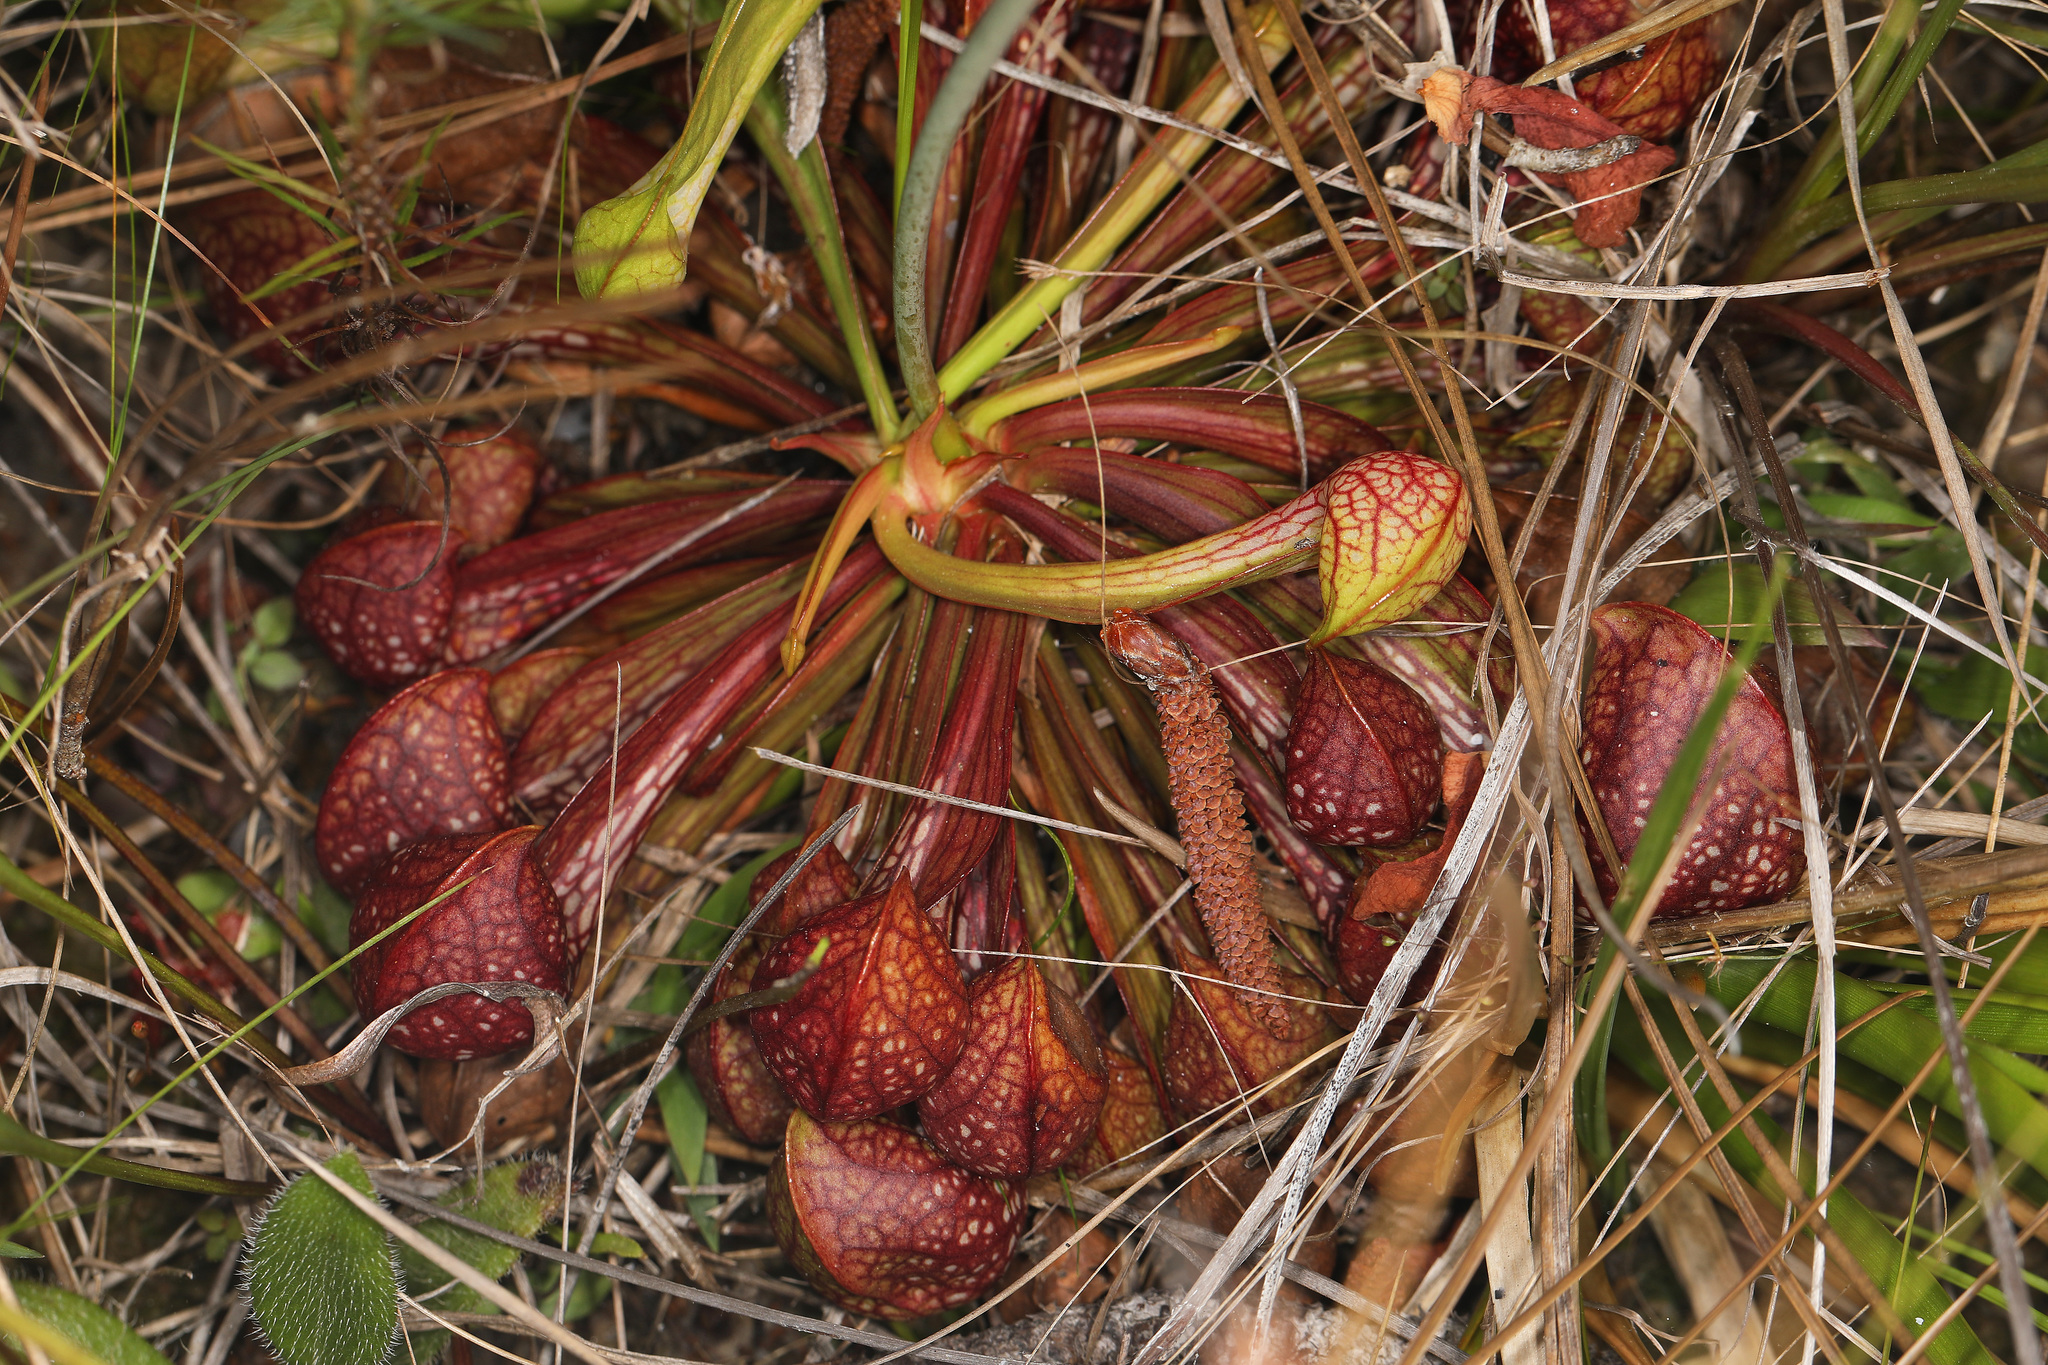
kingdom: Plantae
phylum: Tracheophyta
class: Magnoliopsida
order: Ericales
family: Sarraceniaceae
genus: Sarracenia
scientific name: Sarracenia psittacina
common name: Parrot pitcherplant
